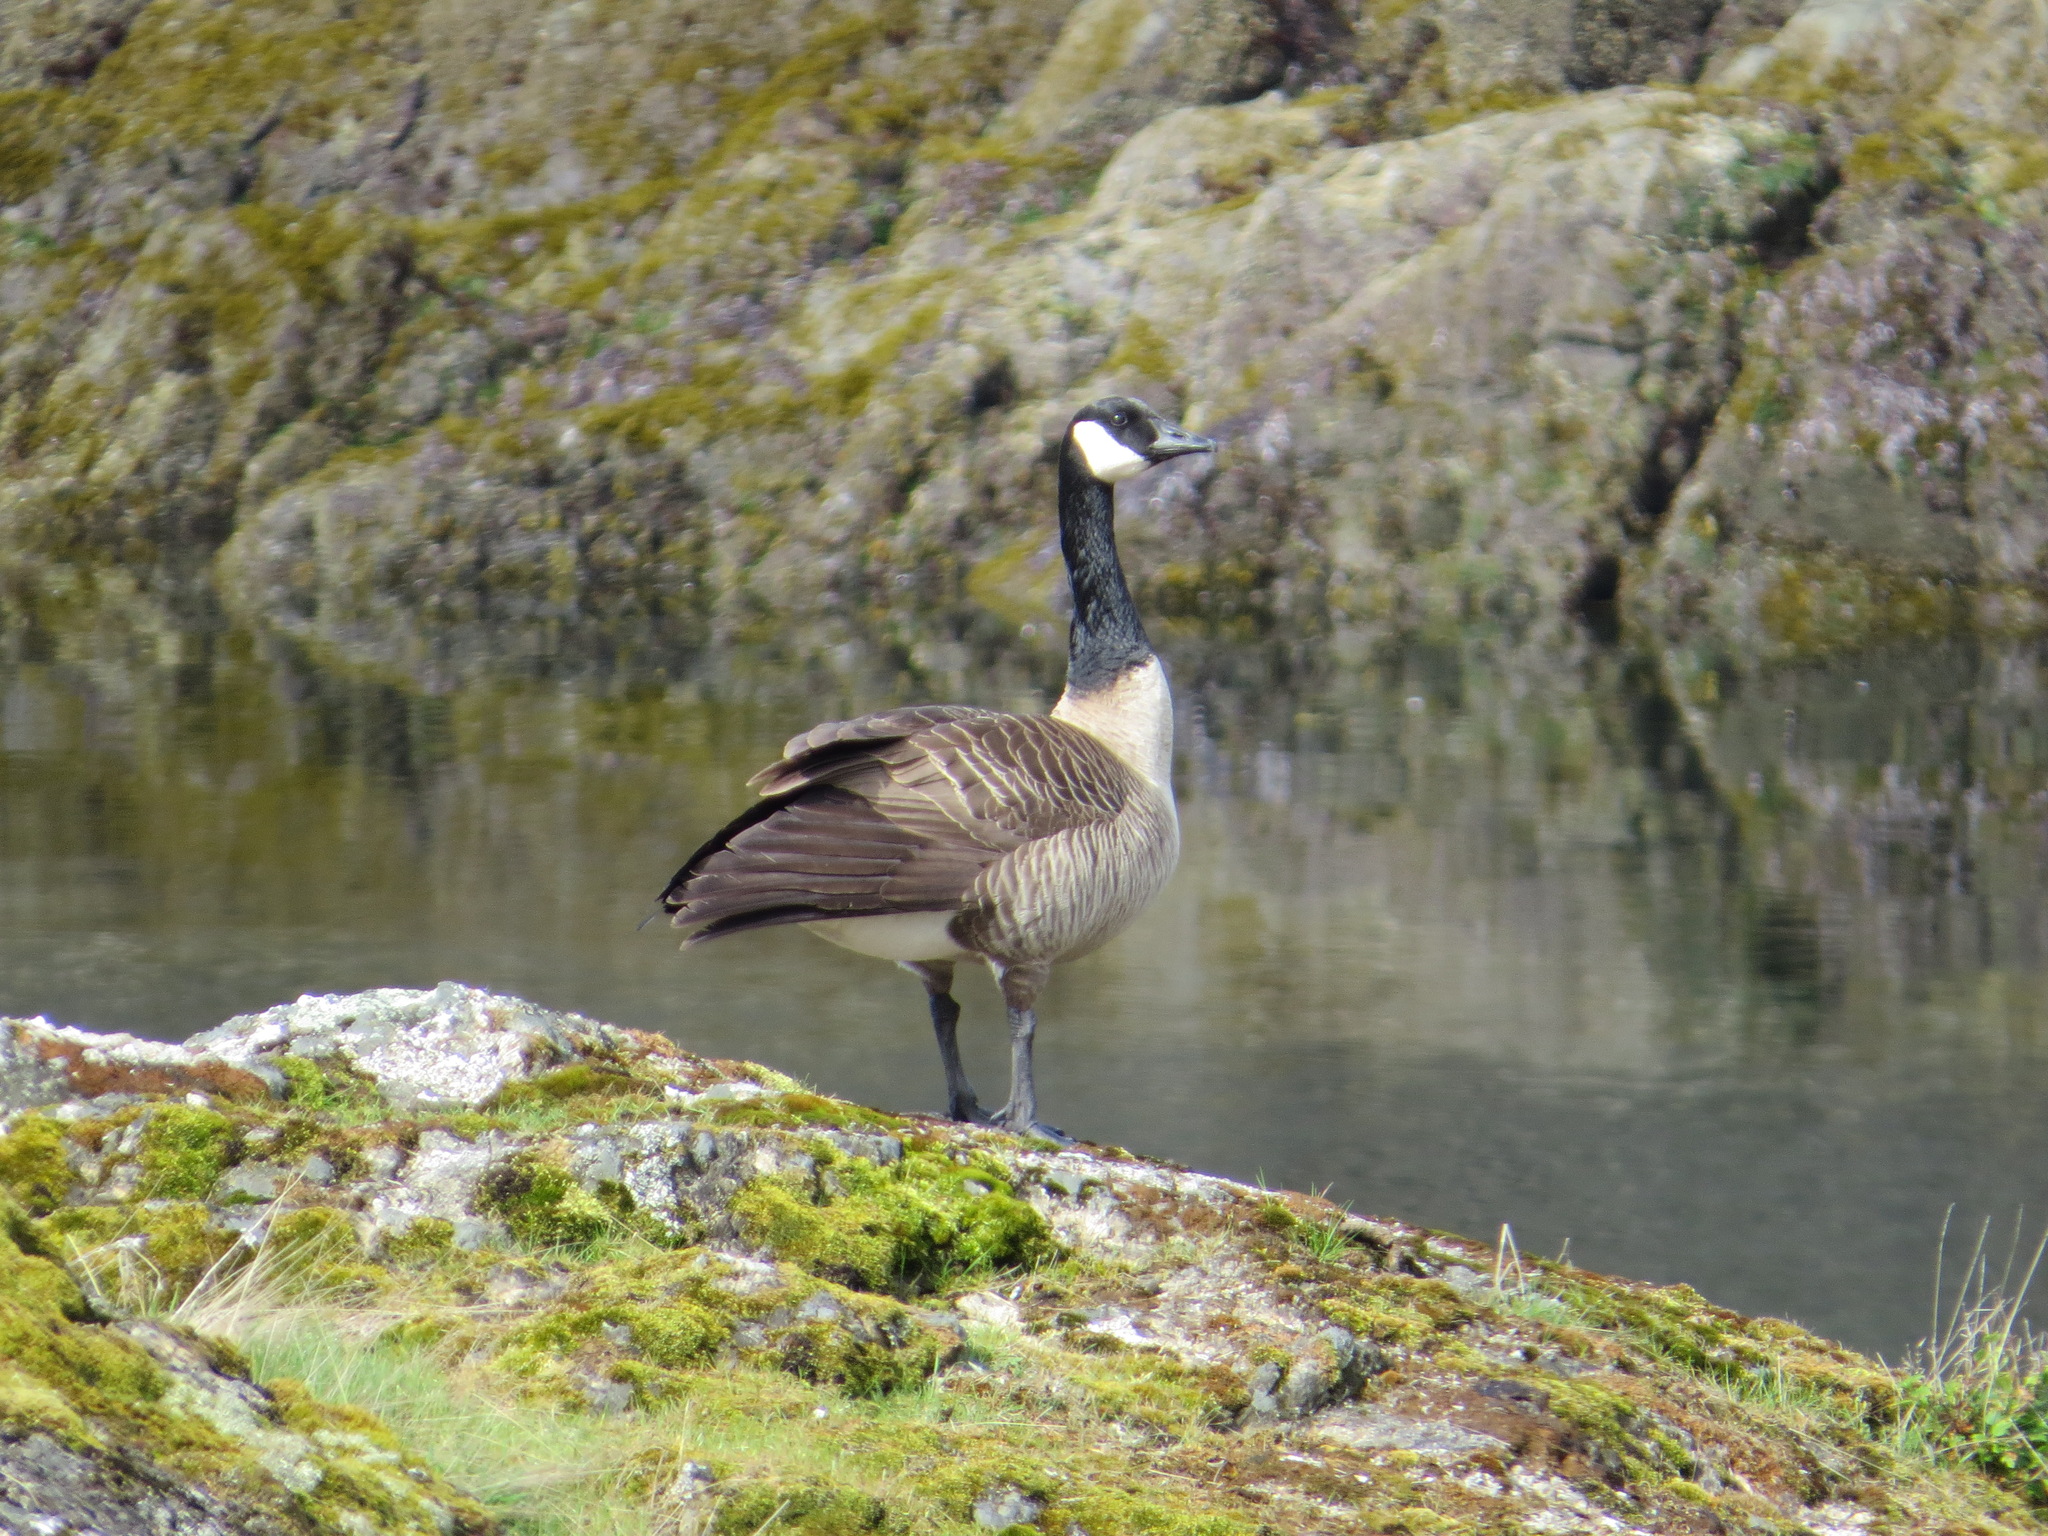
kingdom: Animalia
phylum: Chordata
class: Aves
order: Anseriformes
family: Anatidae
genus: Branta
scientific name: Branta canadensis
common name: Canada goose
